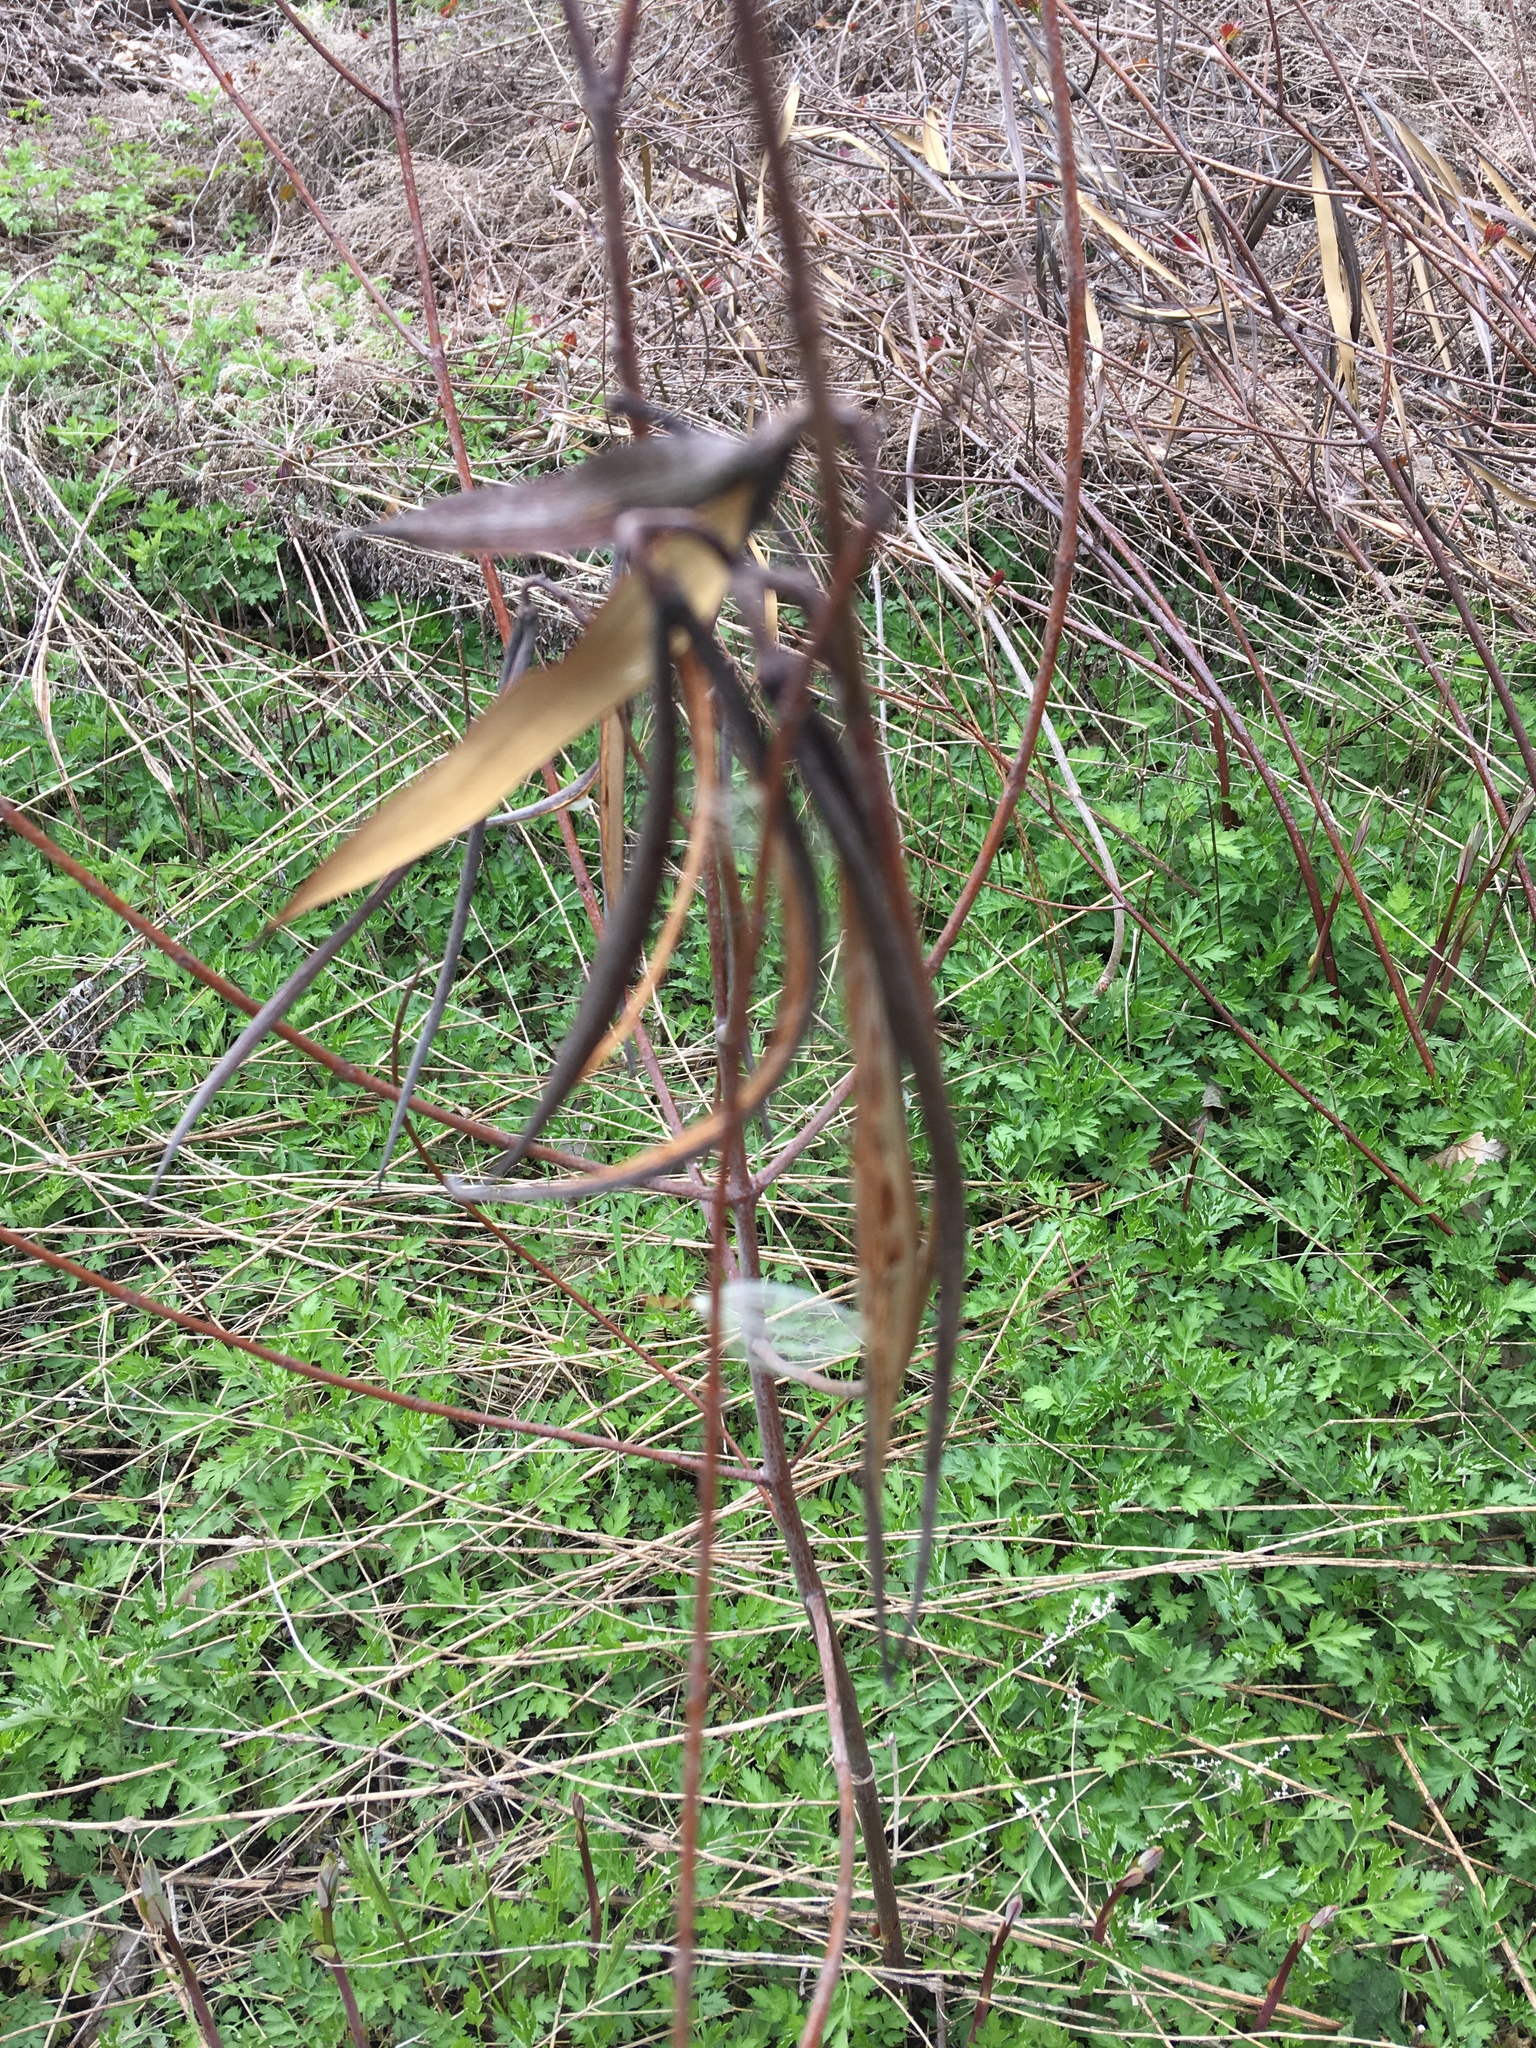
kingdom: Plantae
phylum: Tracheophyta
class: Magnoliopsida
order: Gentianales
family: Apocynaceae
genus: Apocynum
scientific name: Apocynum cannabinum
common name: Hemp dogbane
